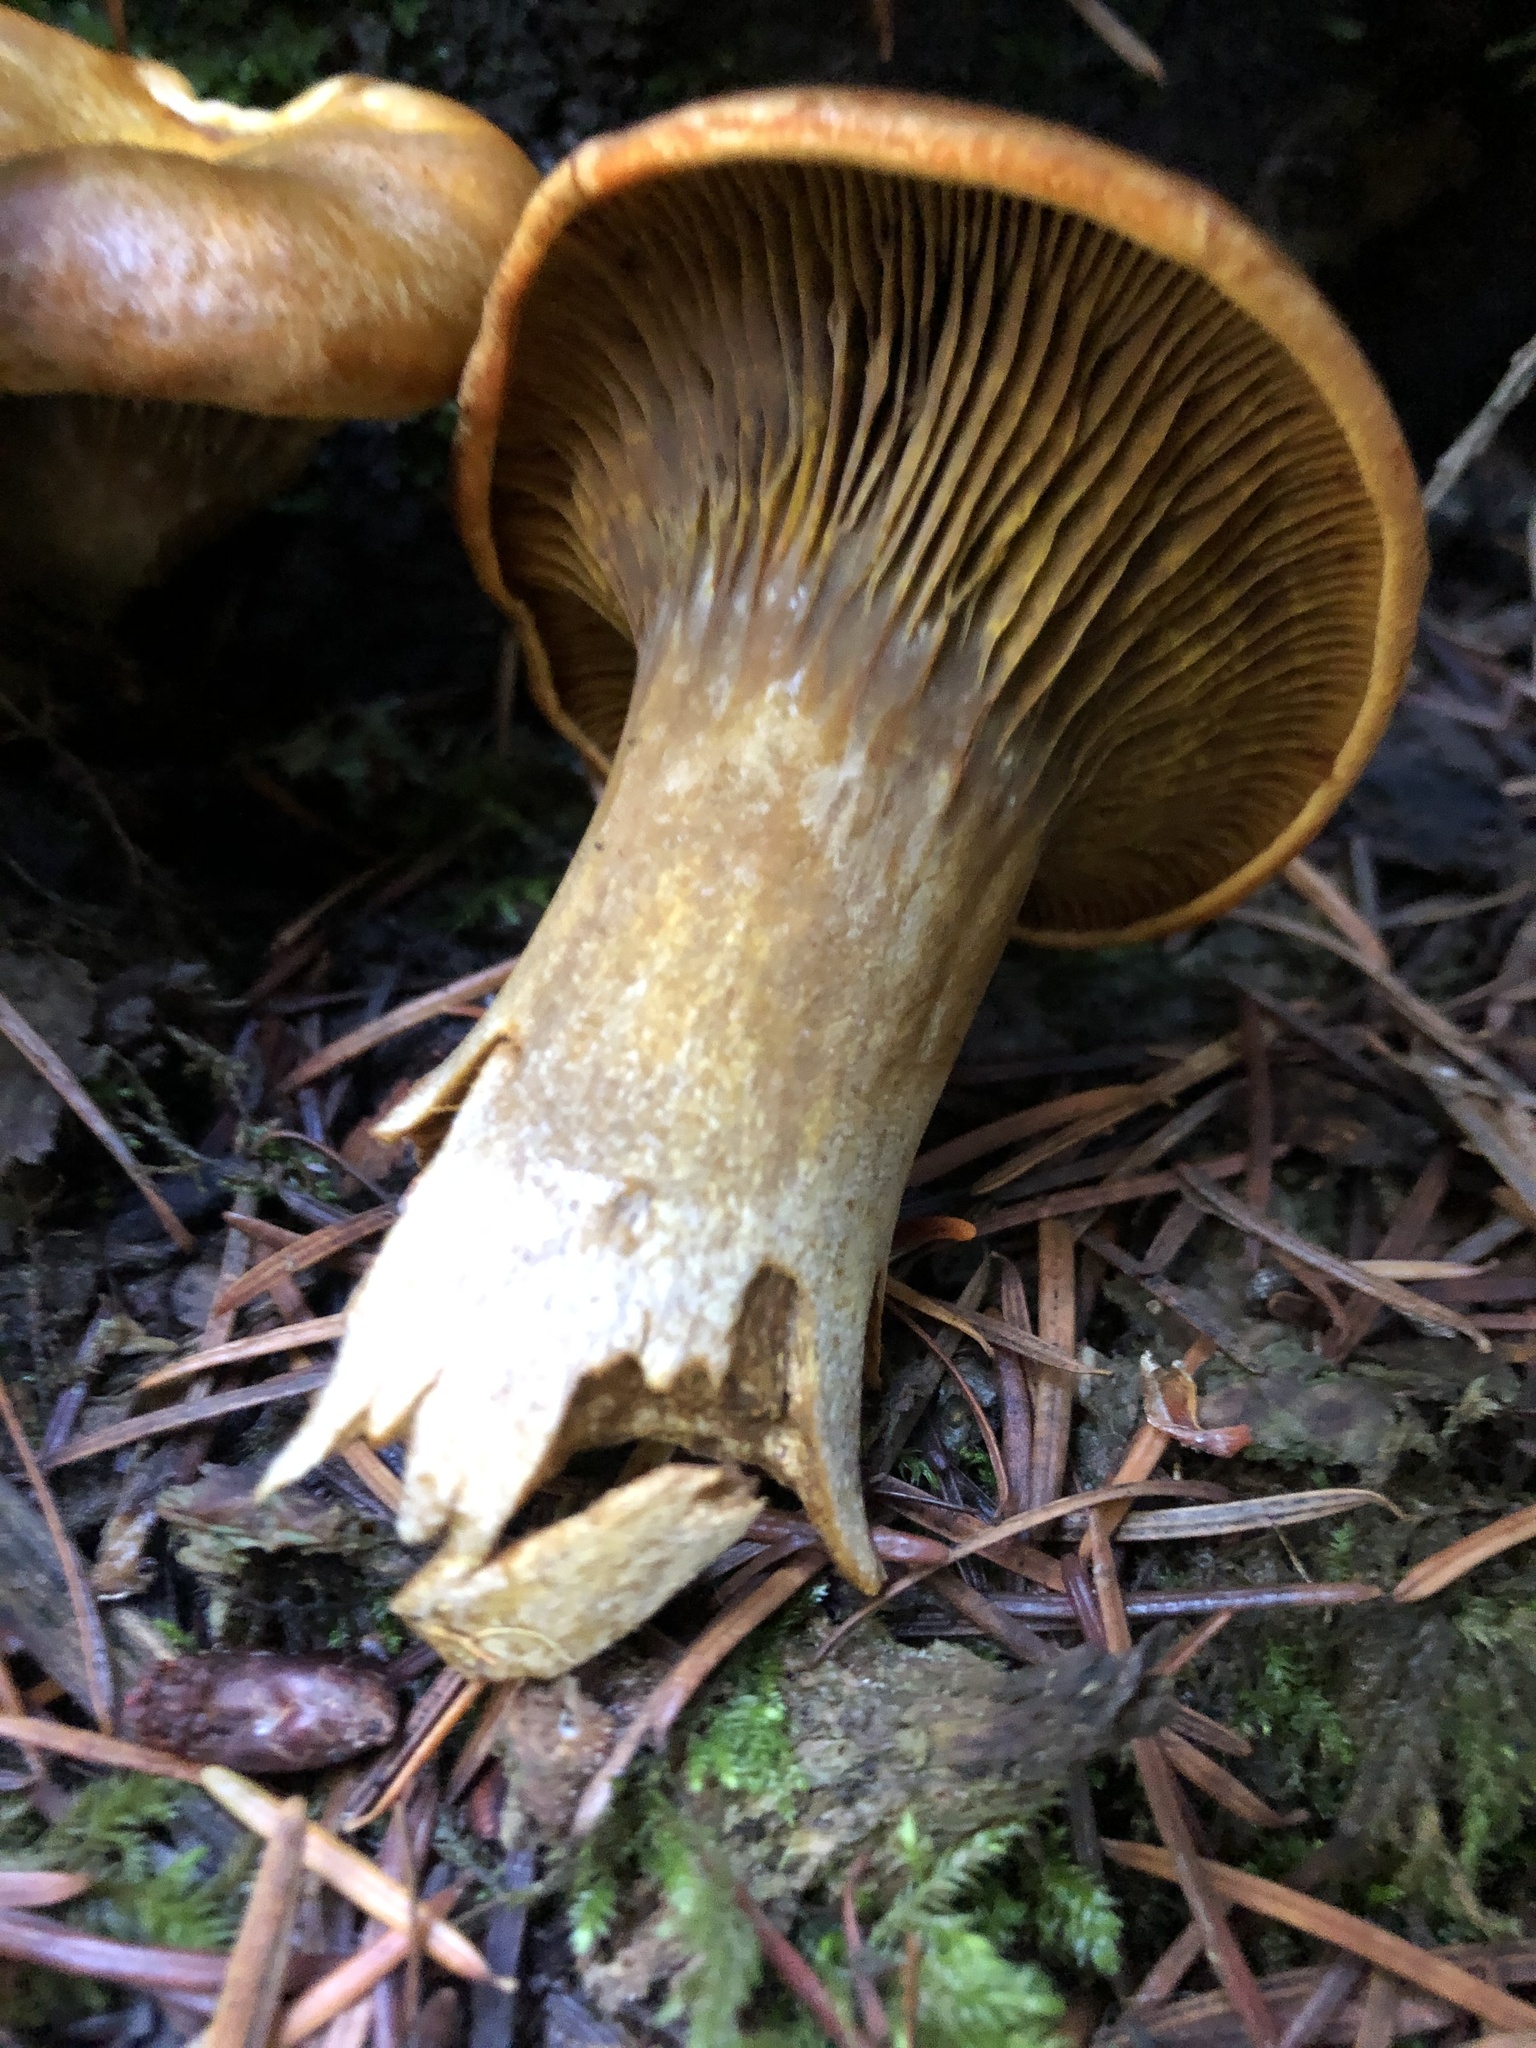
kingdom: Fungi
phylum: Basidiomycota
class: Agaricomycetes
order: Agaricales
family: Omphalotaceae
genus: Omphalotus
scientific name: Omphalotus olivascens
